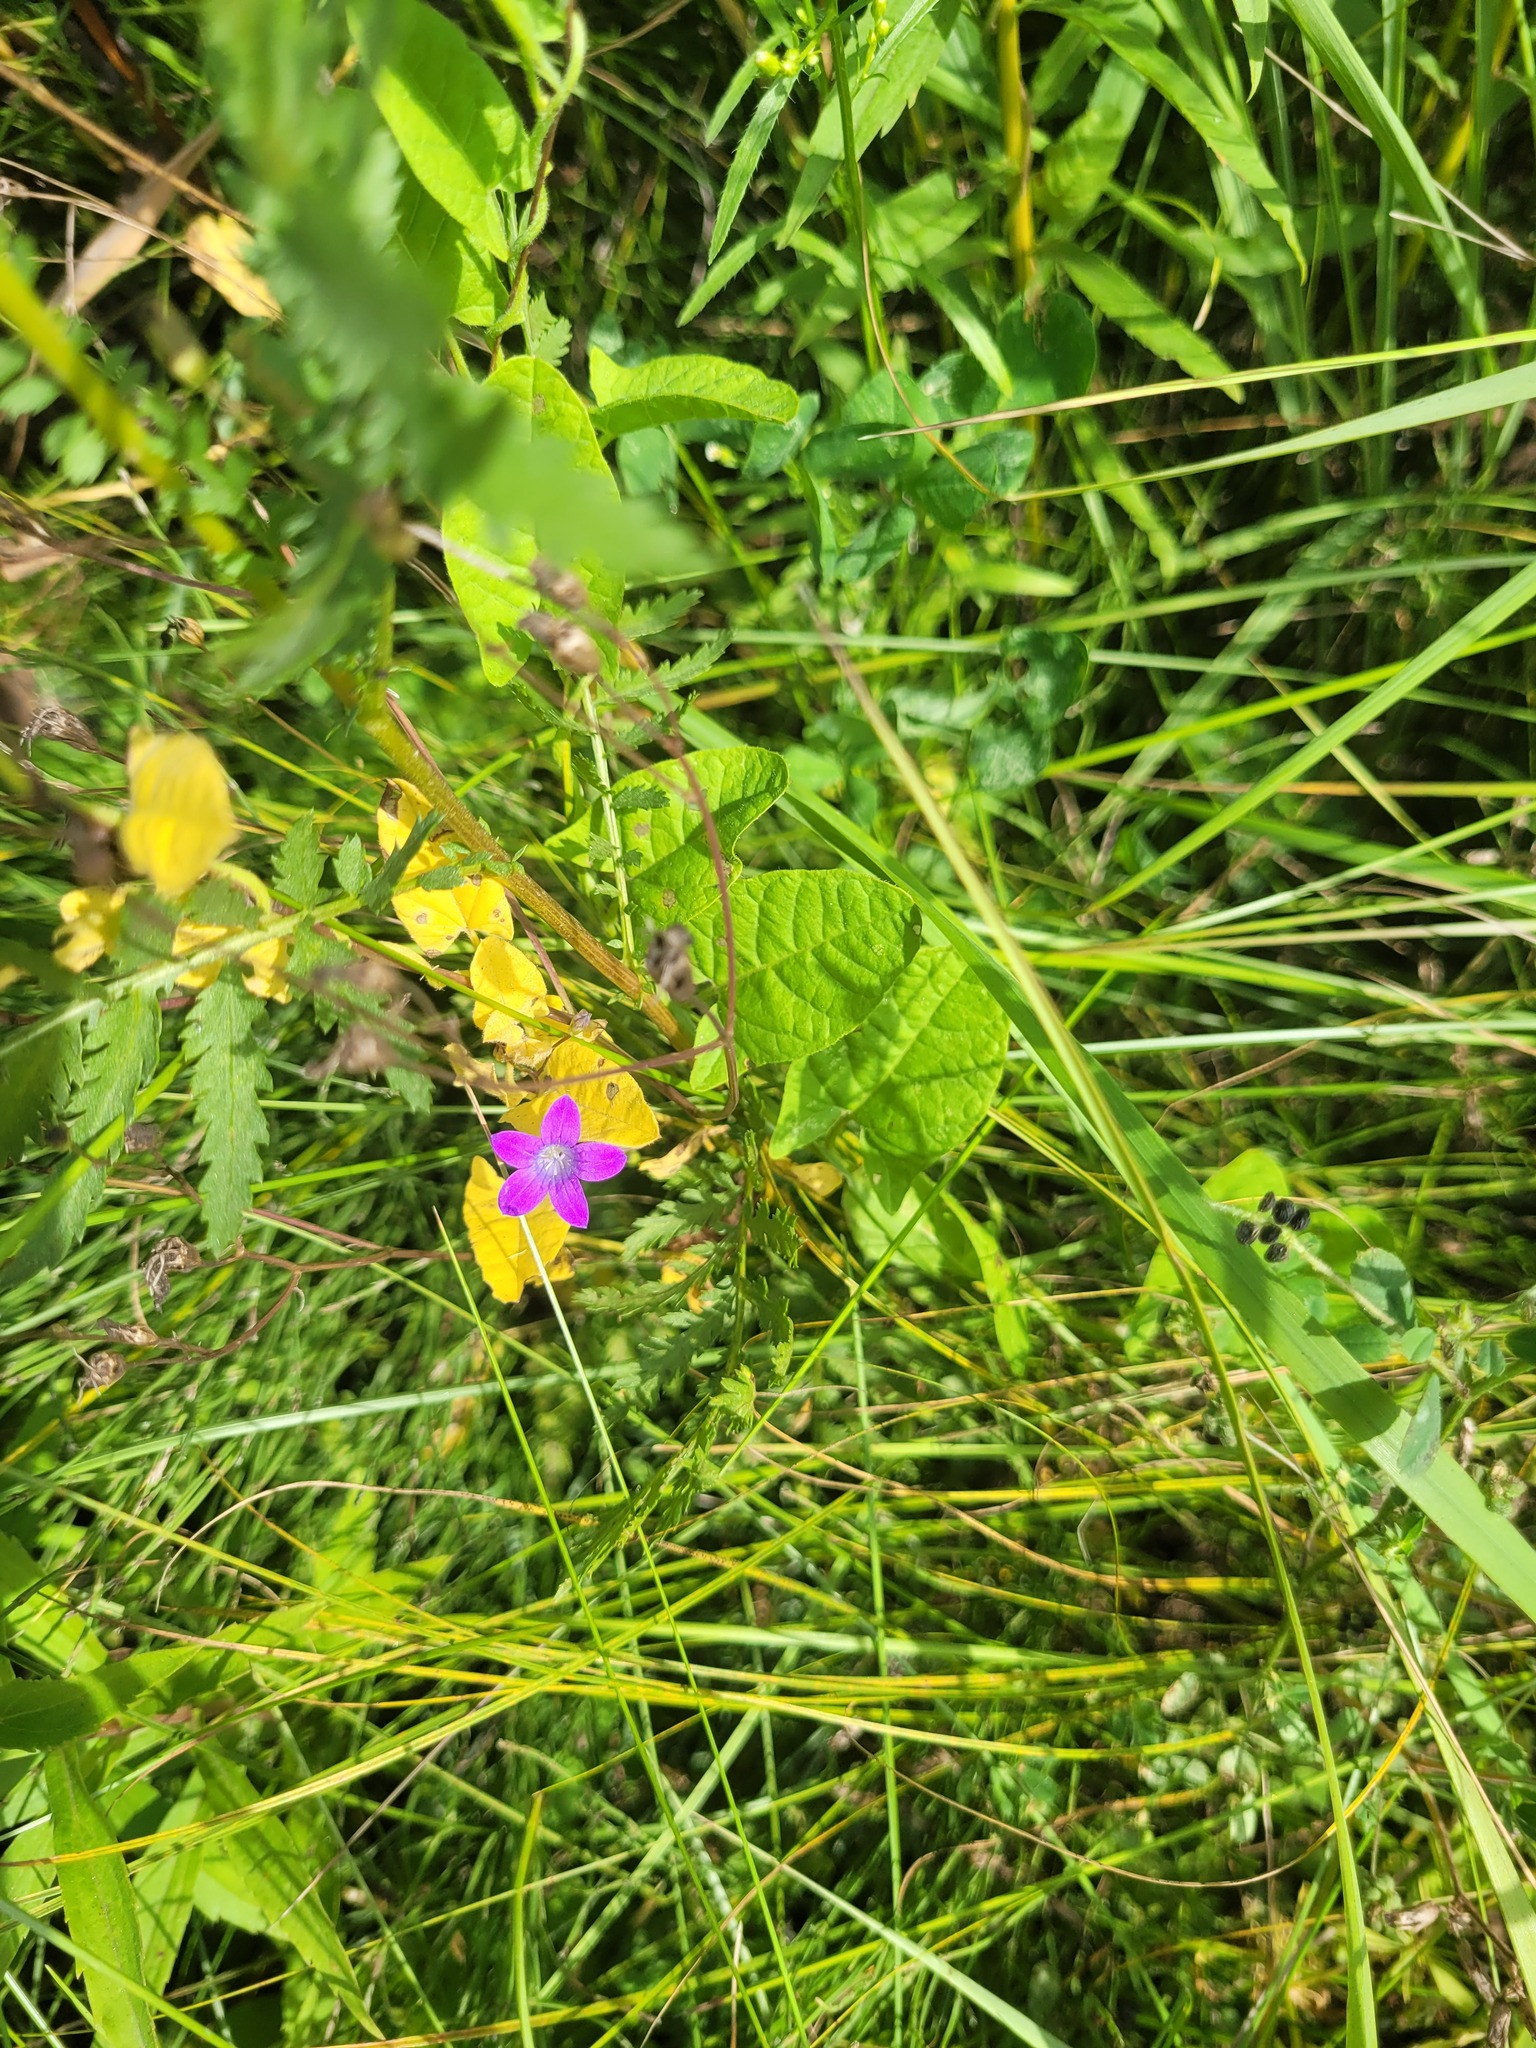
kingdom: Plantae
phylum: Tracheophyta
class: Magnoliopsida
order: Asterales
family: Campanulaceae
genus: Campanula
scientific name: Campanula patula
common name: Spreading bellflower
